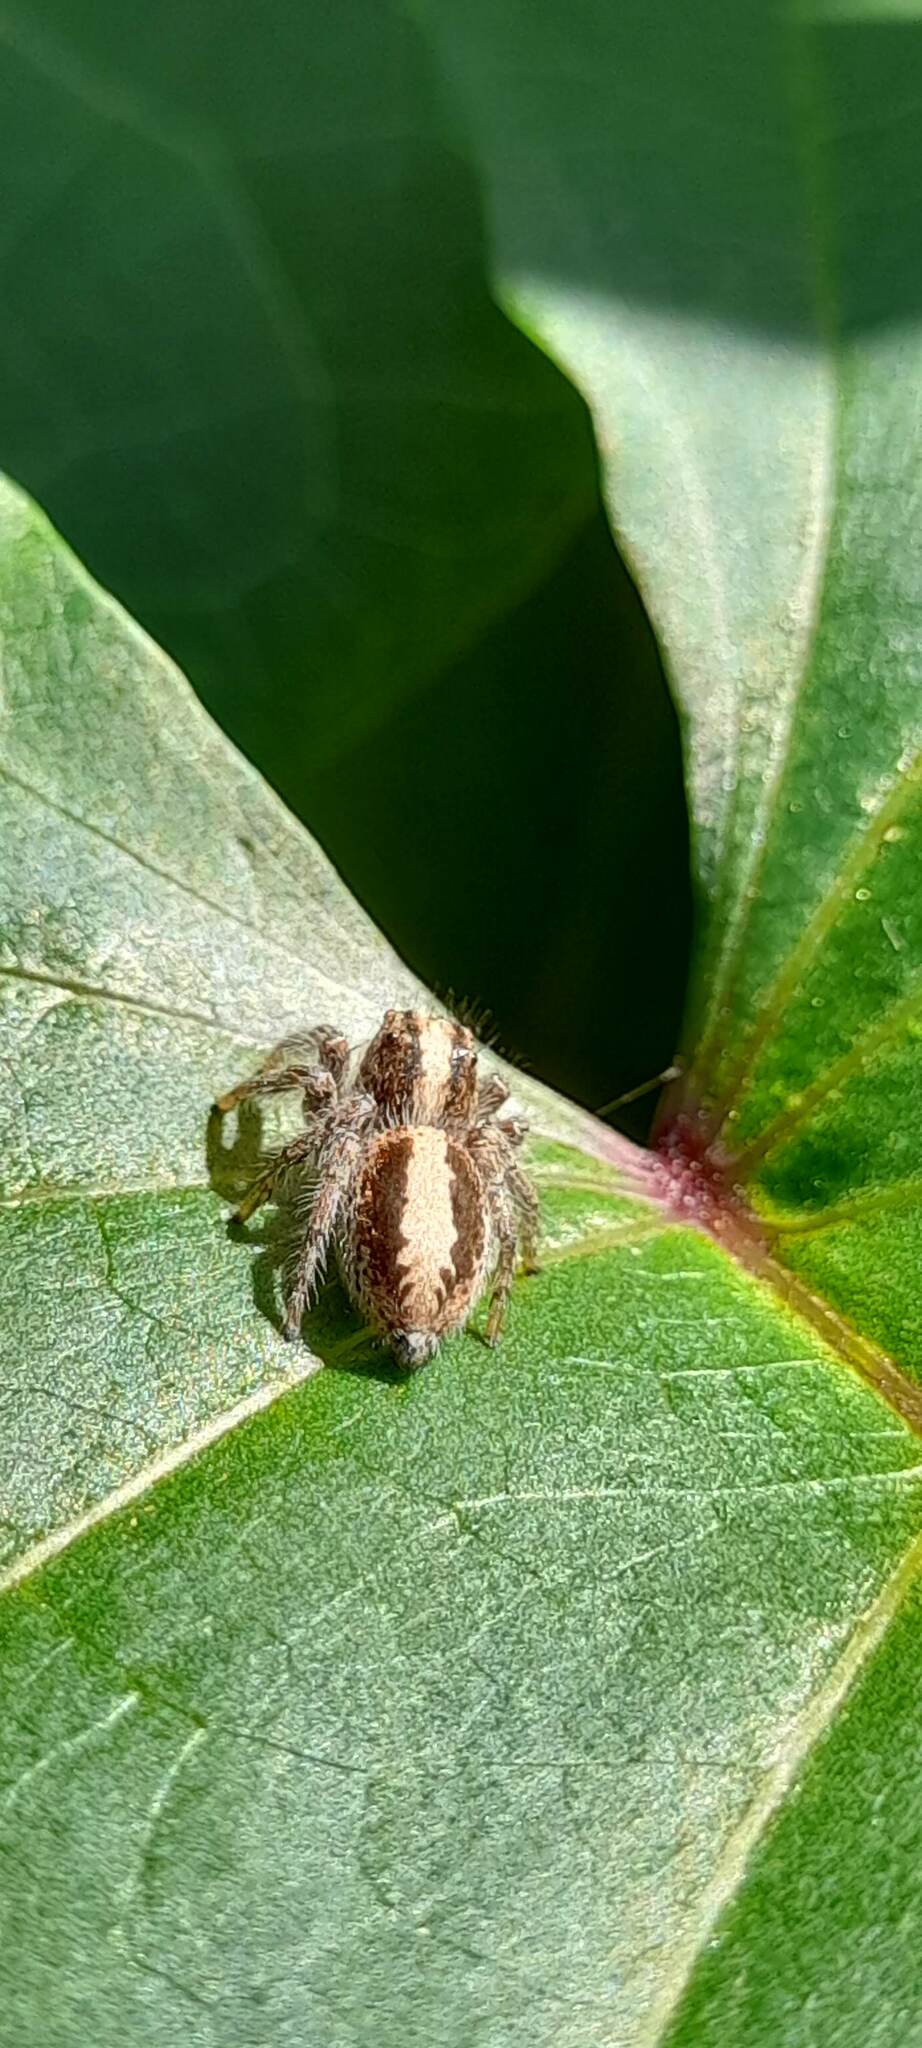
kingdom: Animalia
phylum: Arthropoda
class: Arachnida
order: Araneae
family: Salticidae
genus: Megafreya
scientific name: Megafreya sutrix
